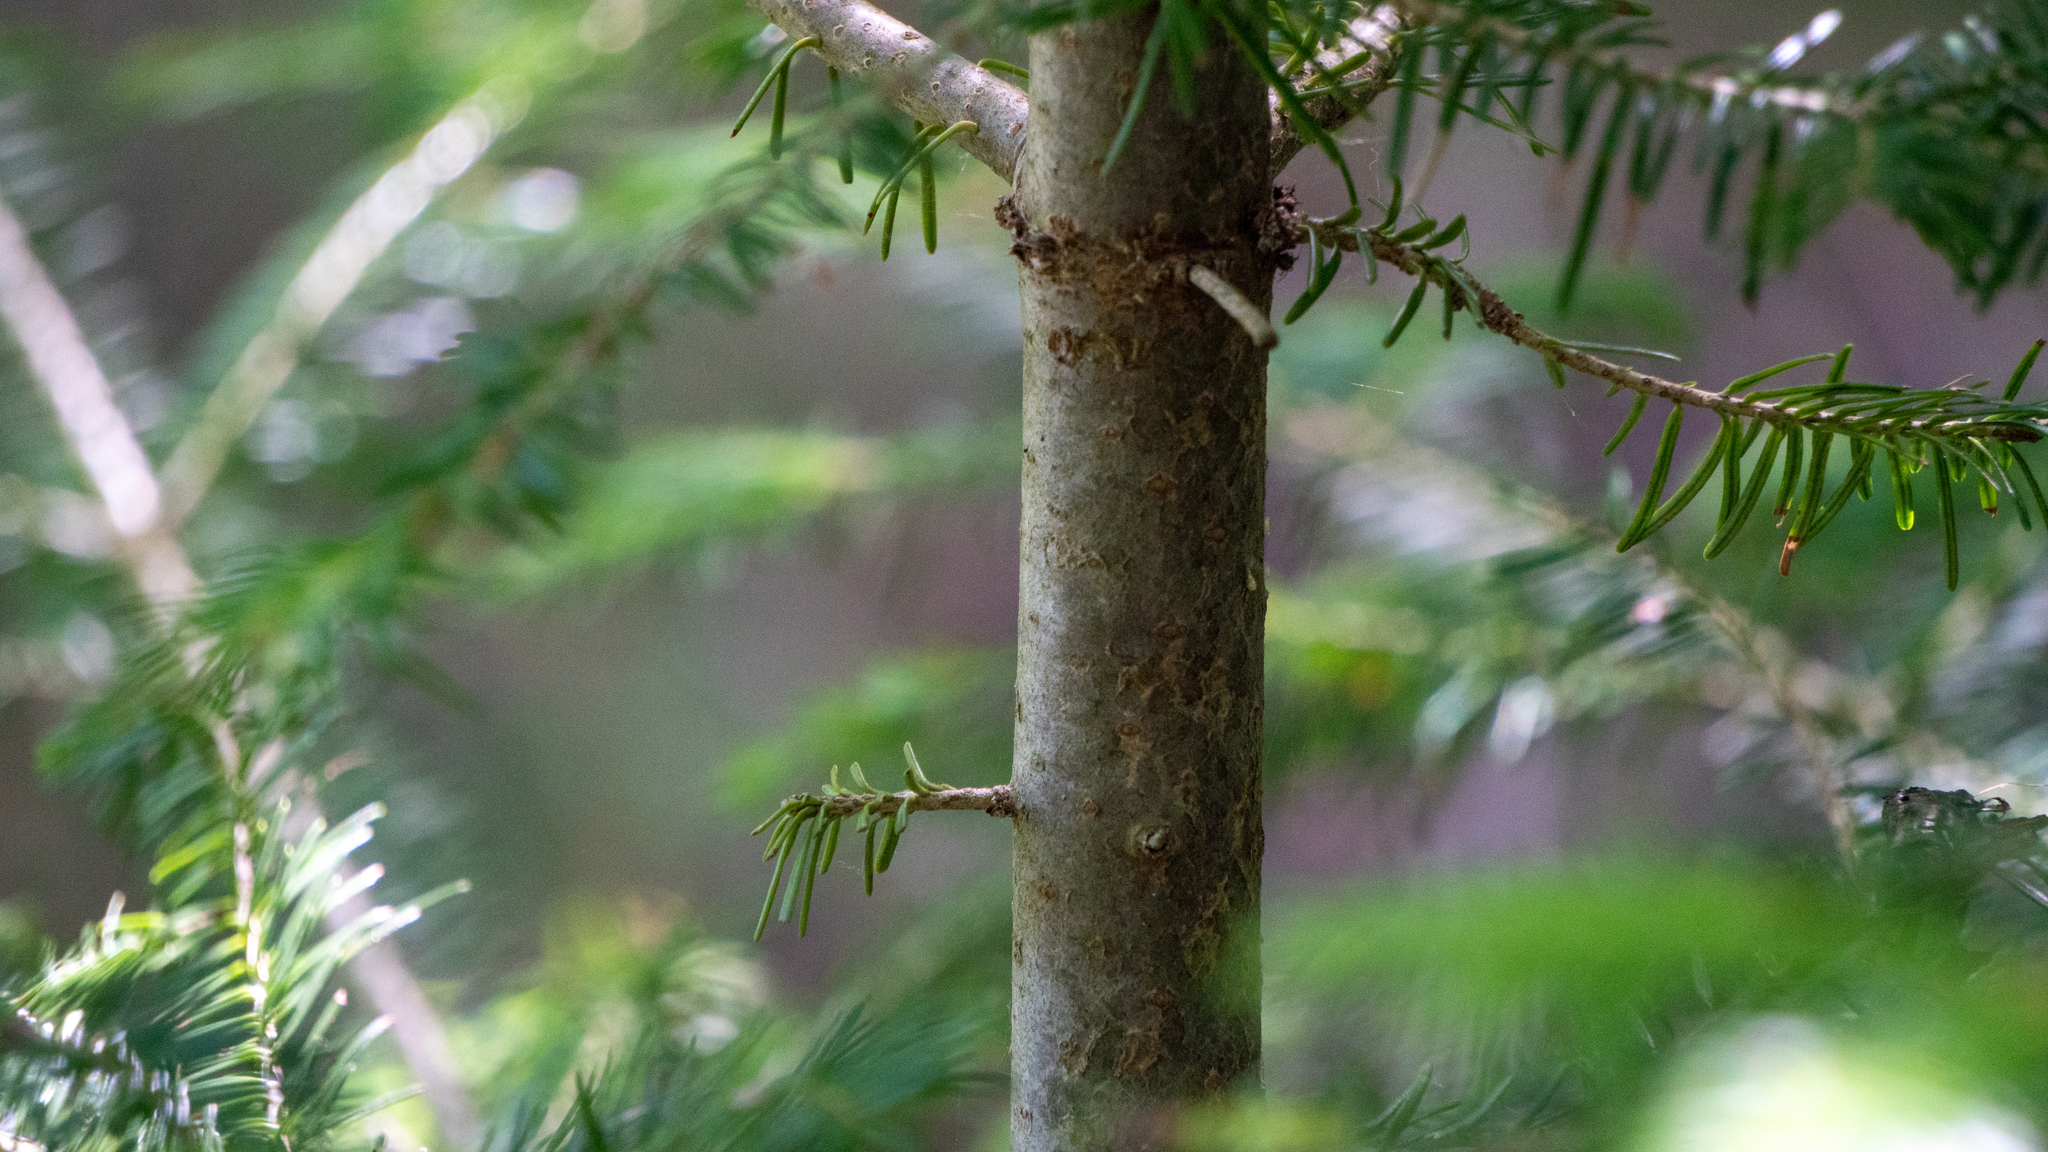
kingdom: Plantae
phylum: Tracheophyta
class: Pinopsida
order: Pinales
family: Pinaceae
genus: Abies
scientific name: Abies balsamea
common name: Balsam fir
